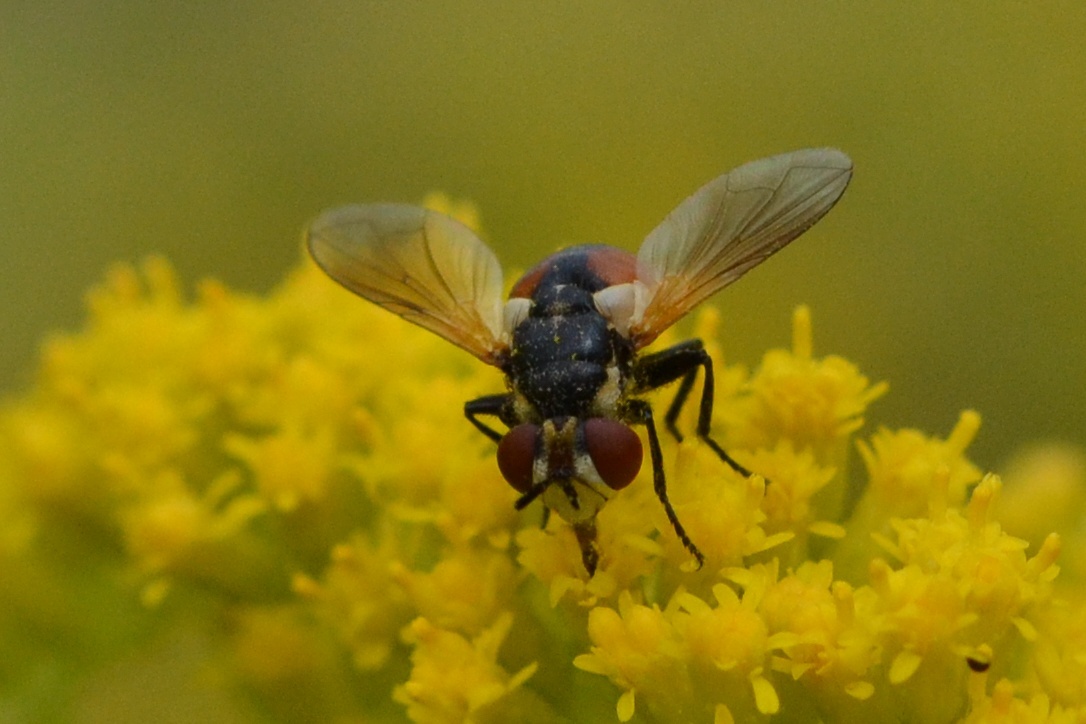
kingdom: Animalia
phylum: Arthropoda
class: Insecta
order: Diptera
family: Tachinidae
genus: Gymnosoma
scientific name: Gymnosoma rotundatum
